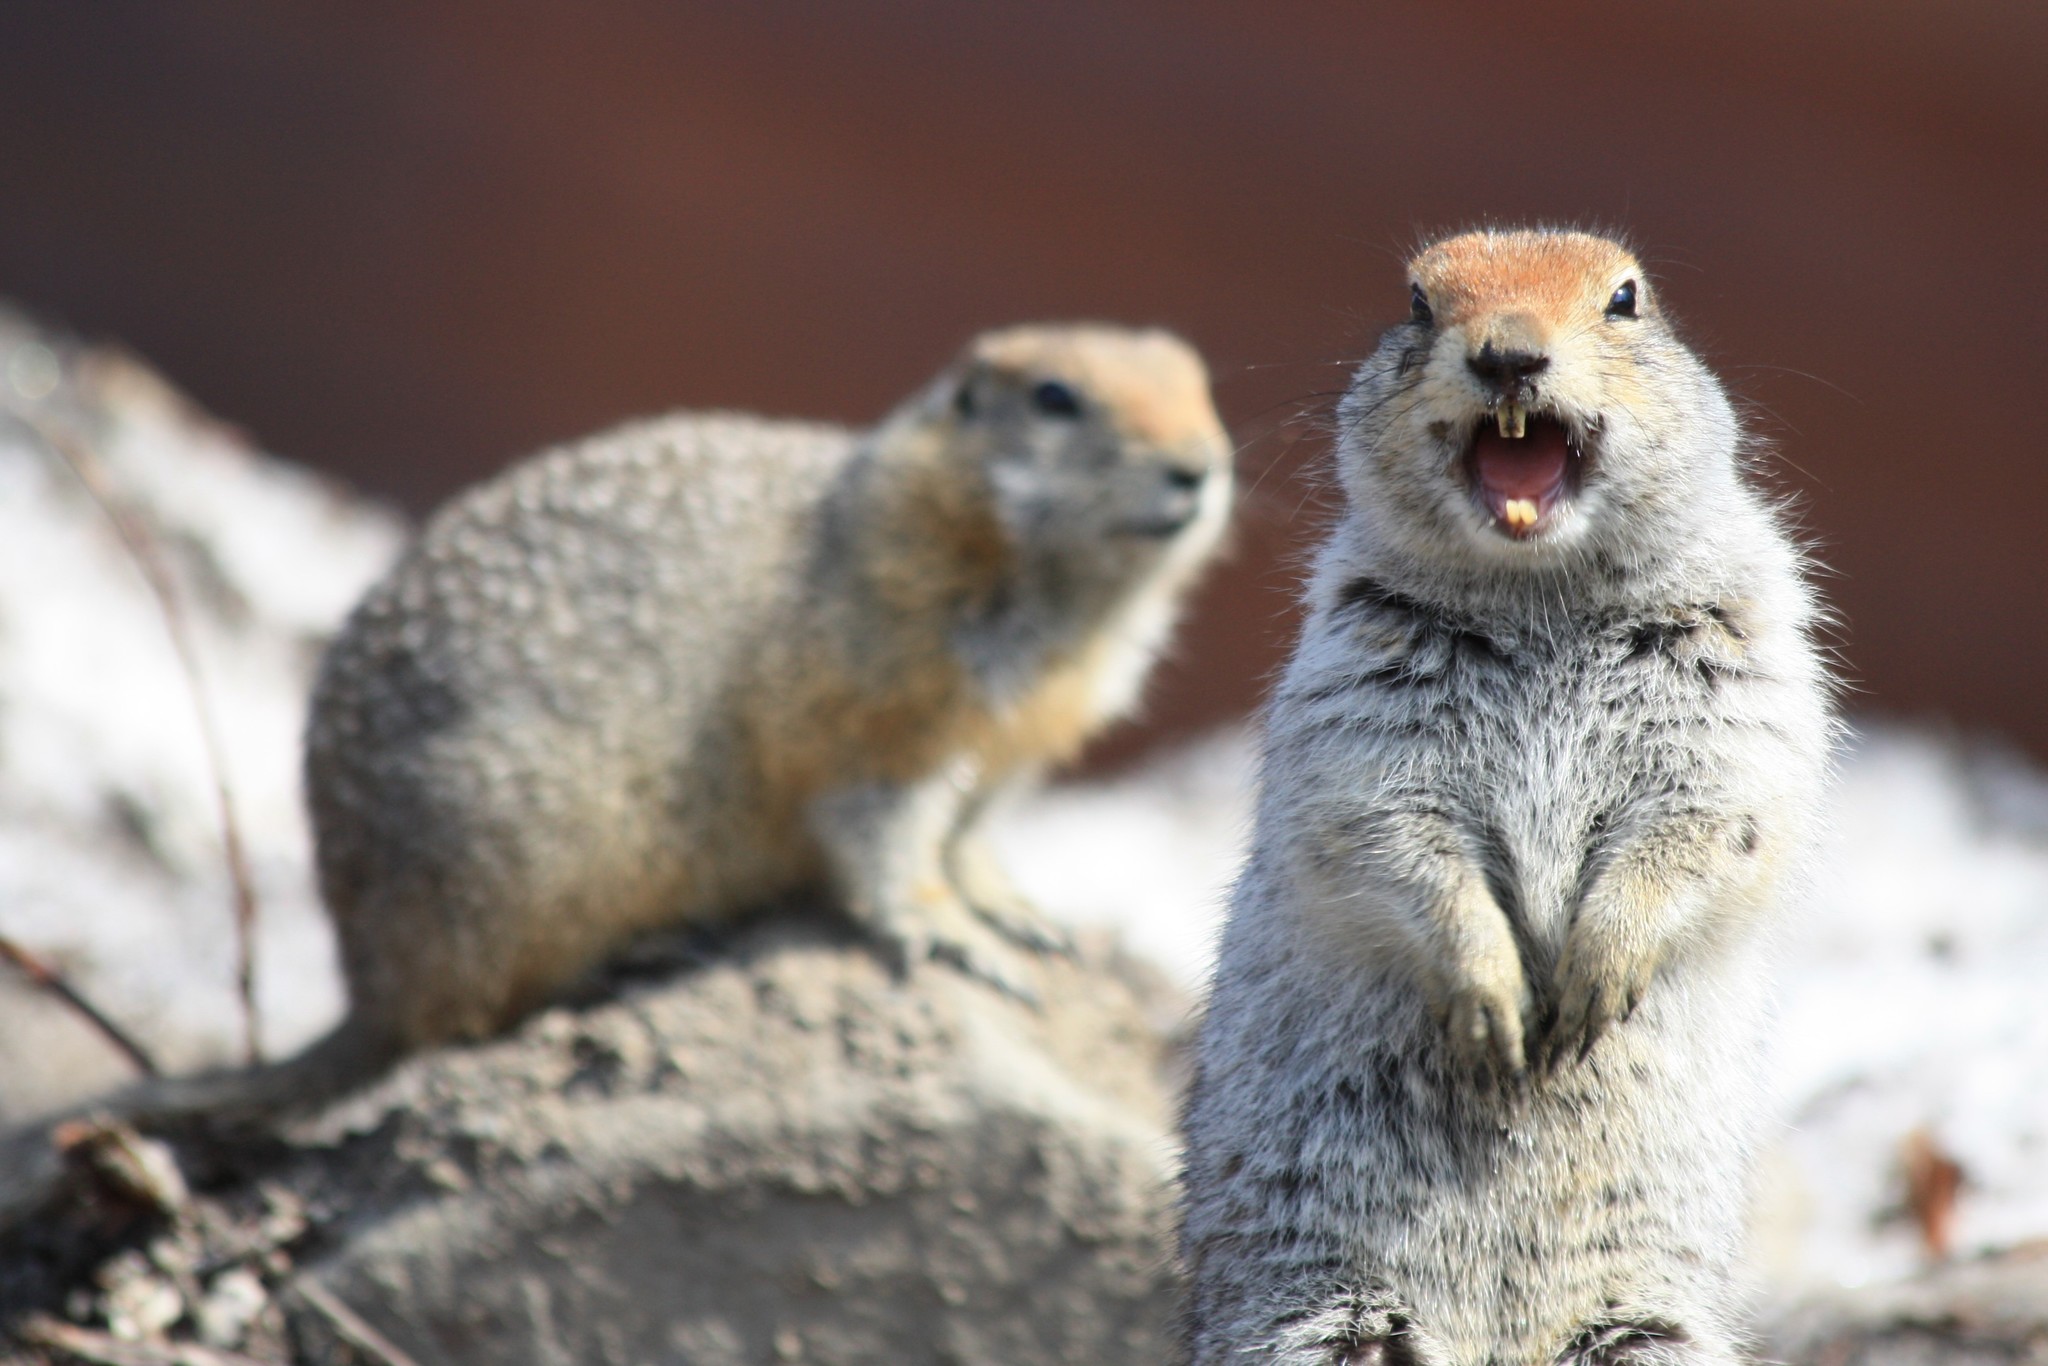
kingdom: Animalia
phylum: Chordata
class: Mammalia
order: Rodentia
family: Sciuridae
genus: Urocitellus
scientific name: Urocitellus parryii
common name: Arctic ground squirrel
